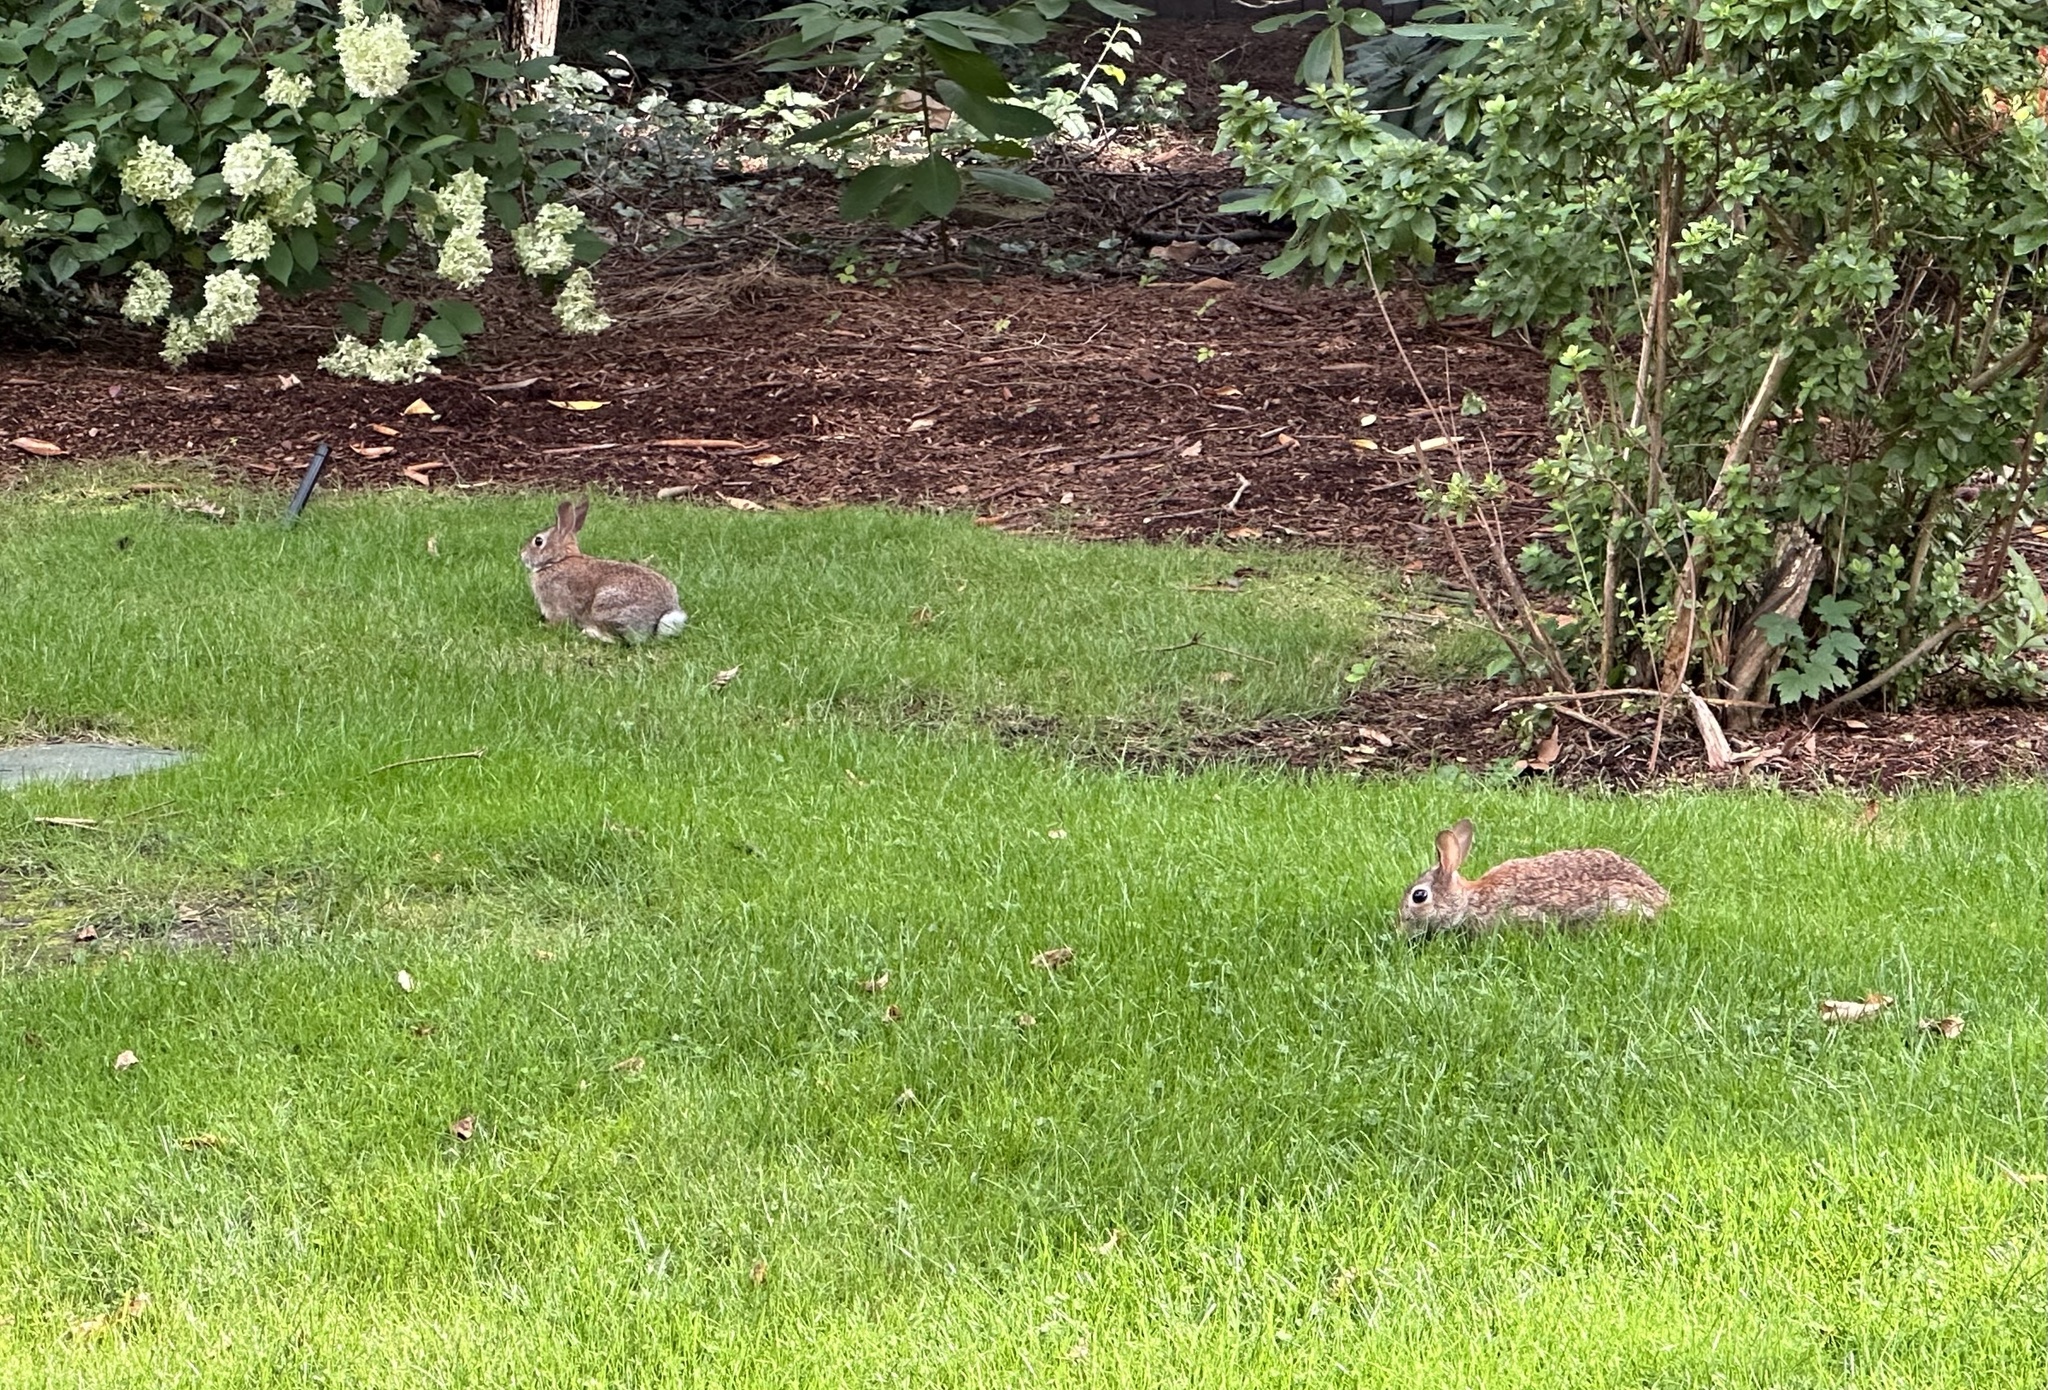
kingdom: Animalia
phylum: Chordata
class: Mammalia
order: Lagomorpha
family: Leporidae
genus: Sylvilagus
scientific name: Sylvilagus floridanus
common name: Eastern cottontail
